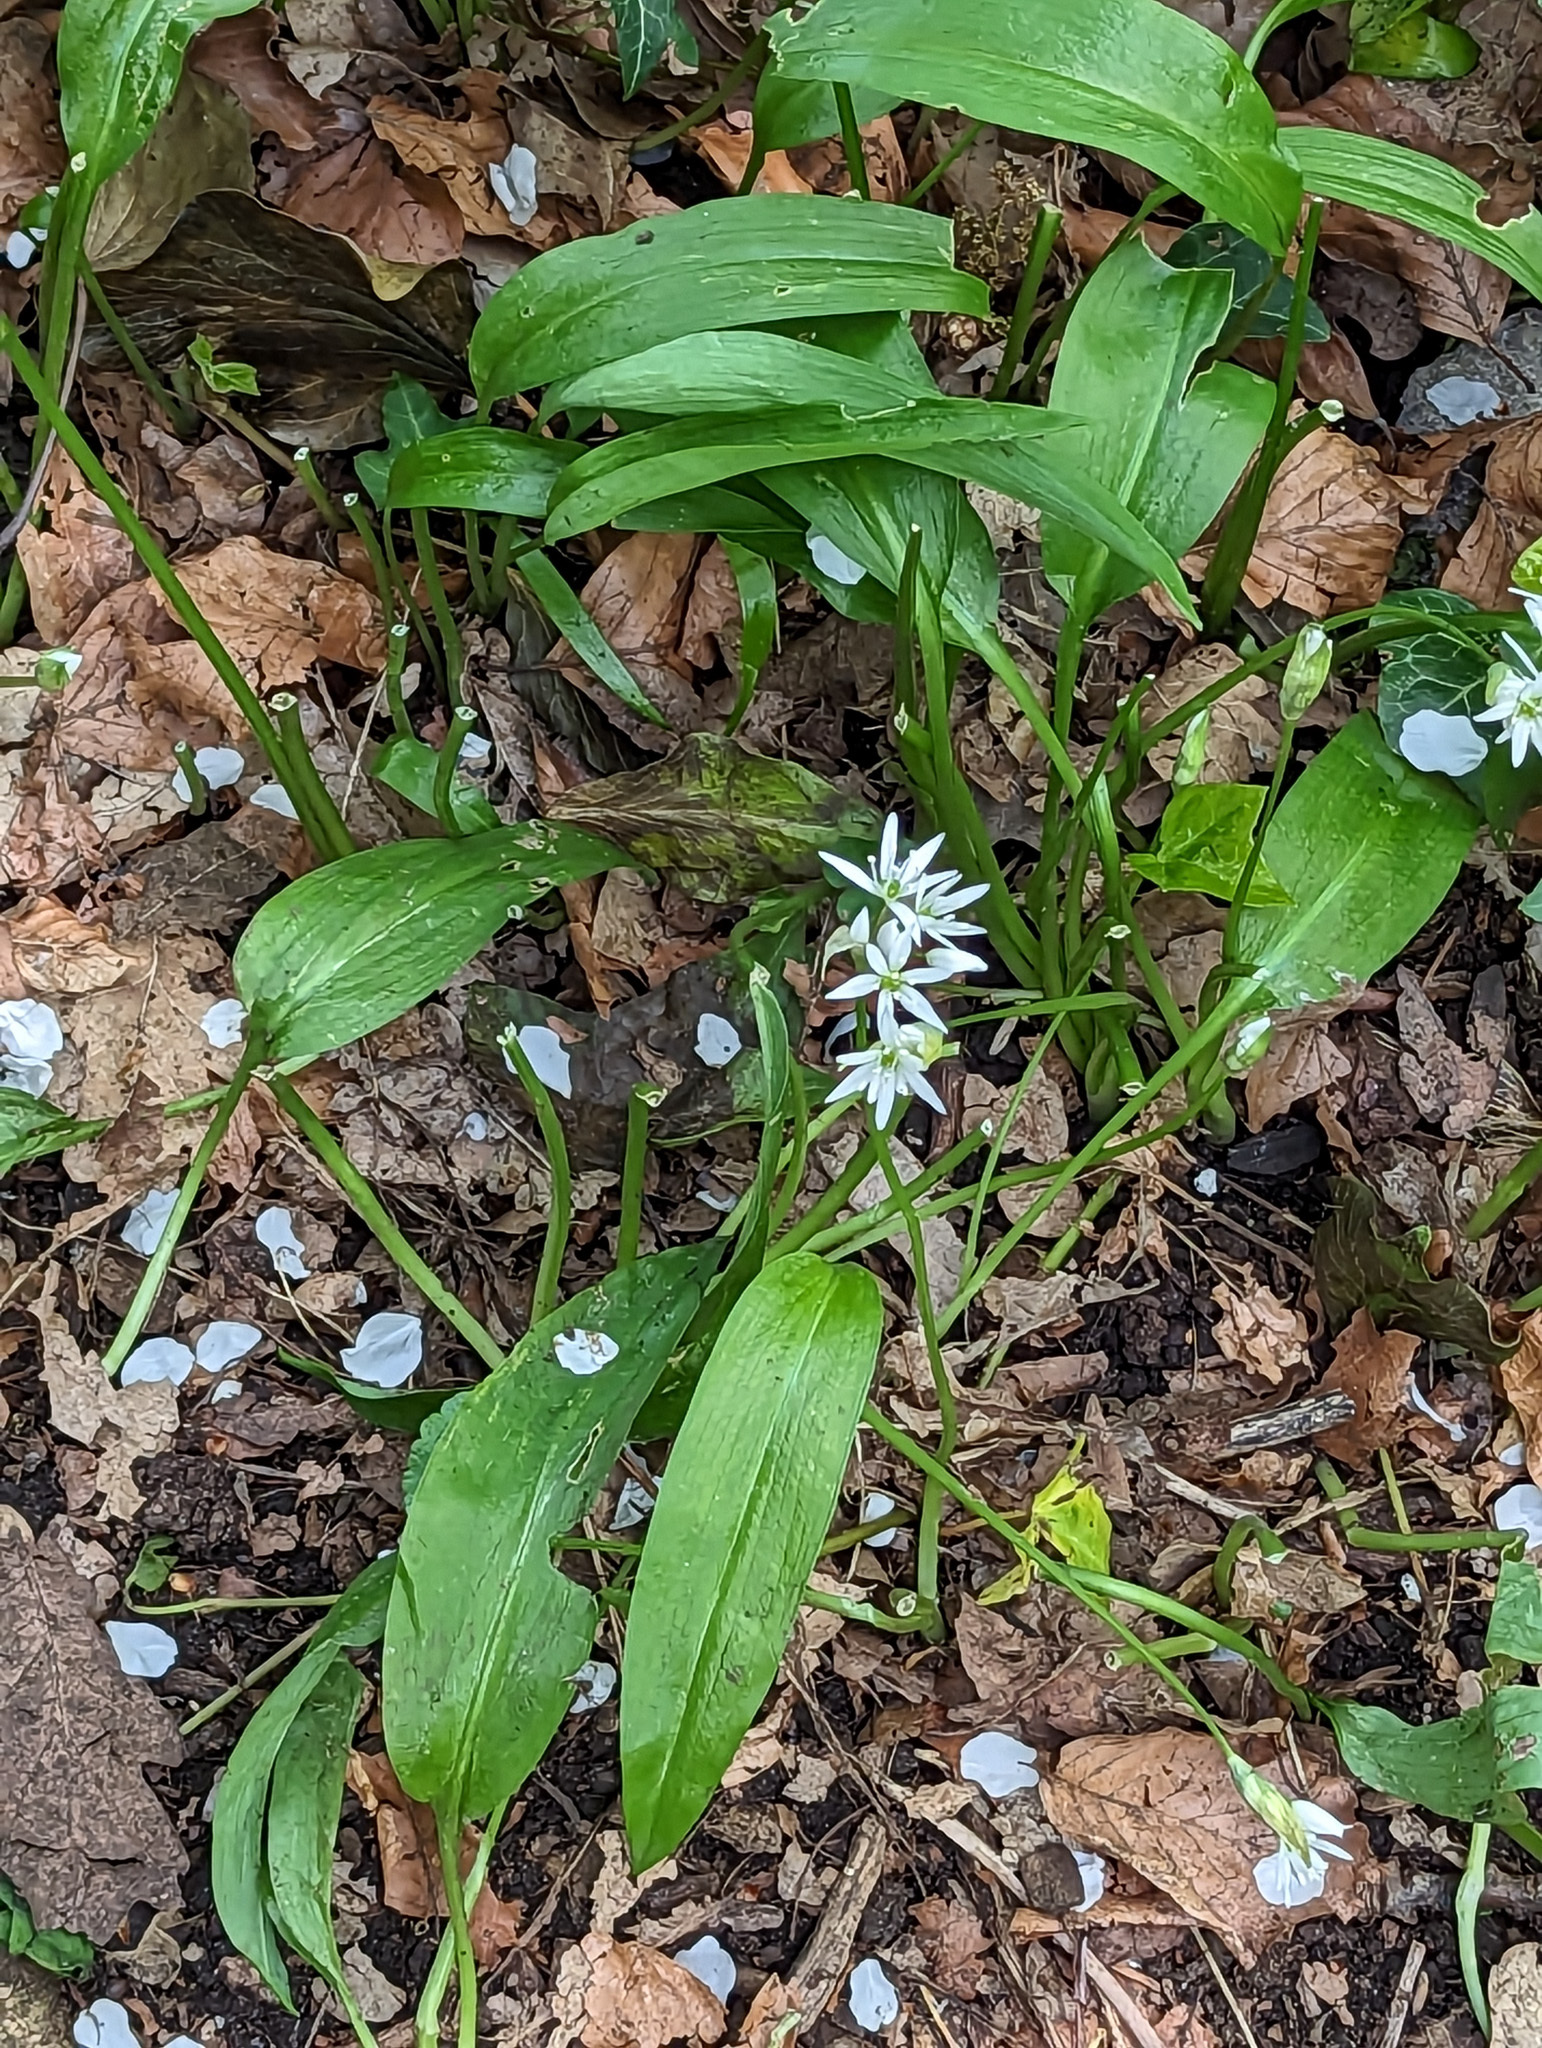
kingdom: Plantae
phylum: Tracheophyta
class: Liliopsida
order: Asparagales
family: Amaryllidaceae
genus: Allium
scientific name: Allium ursinum
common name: Ramsons
